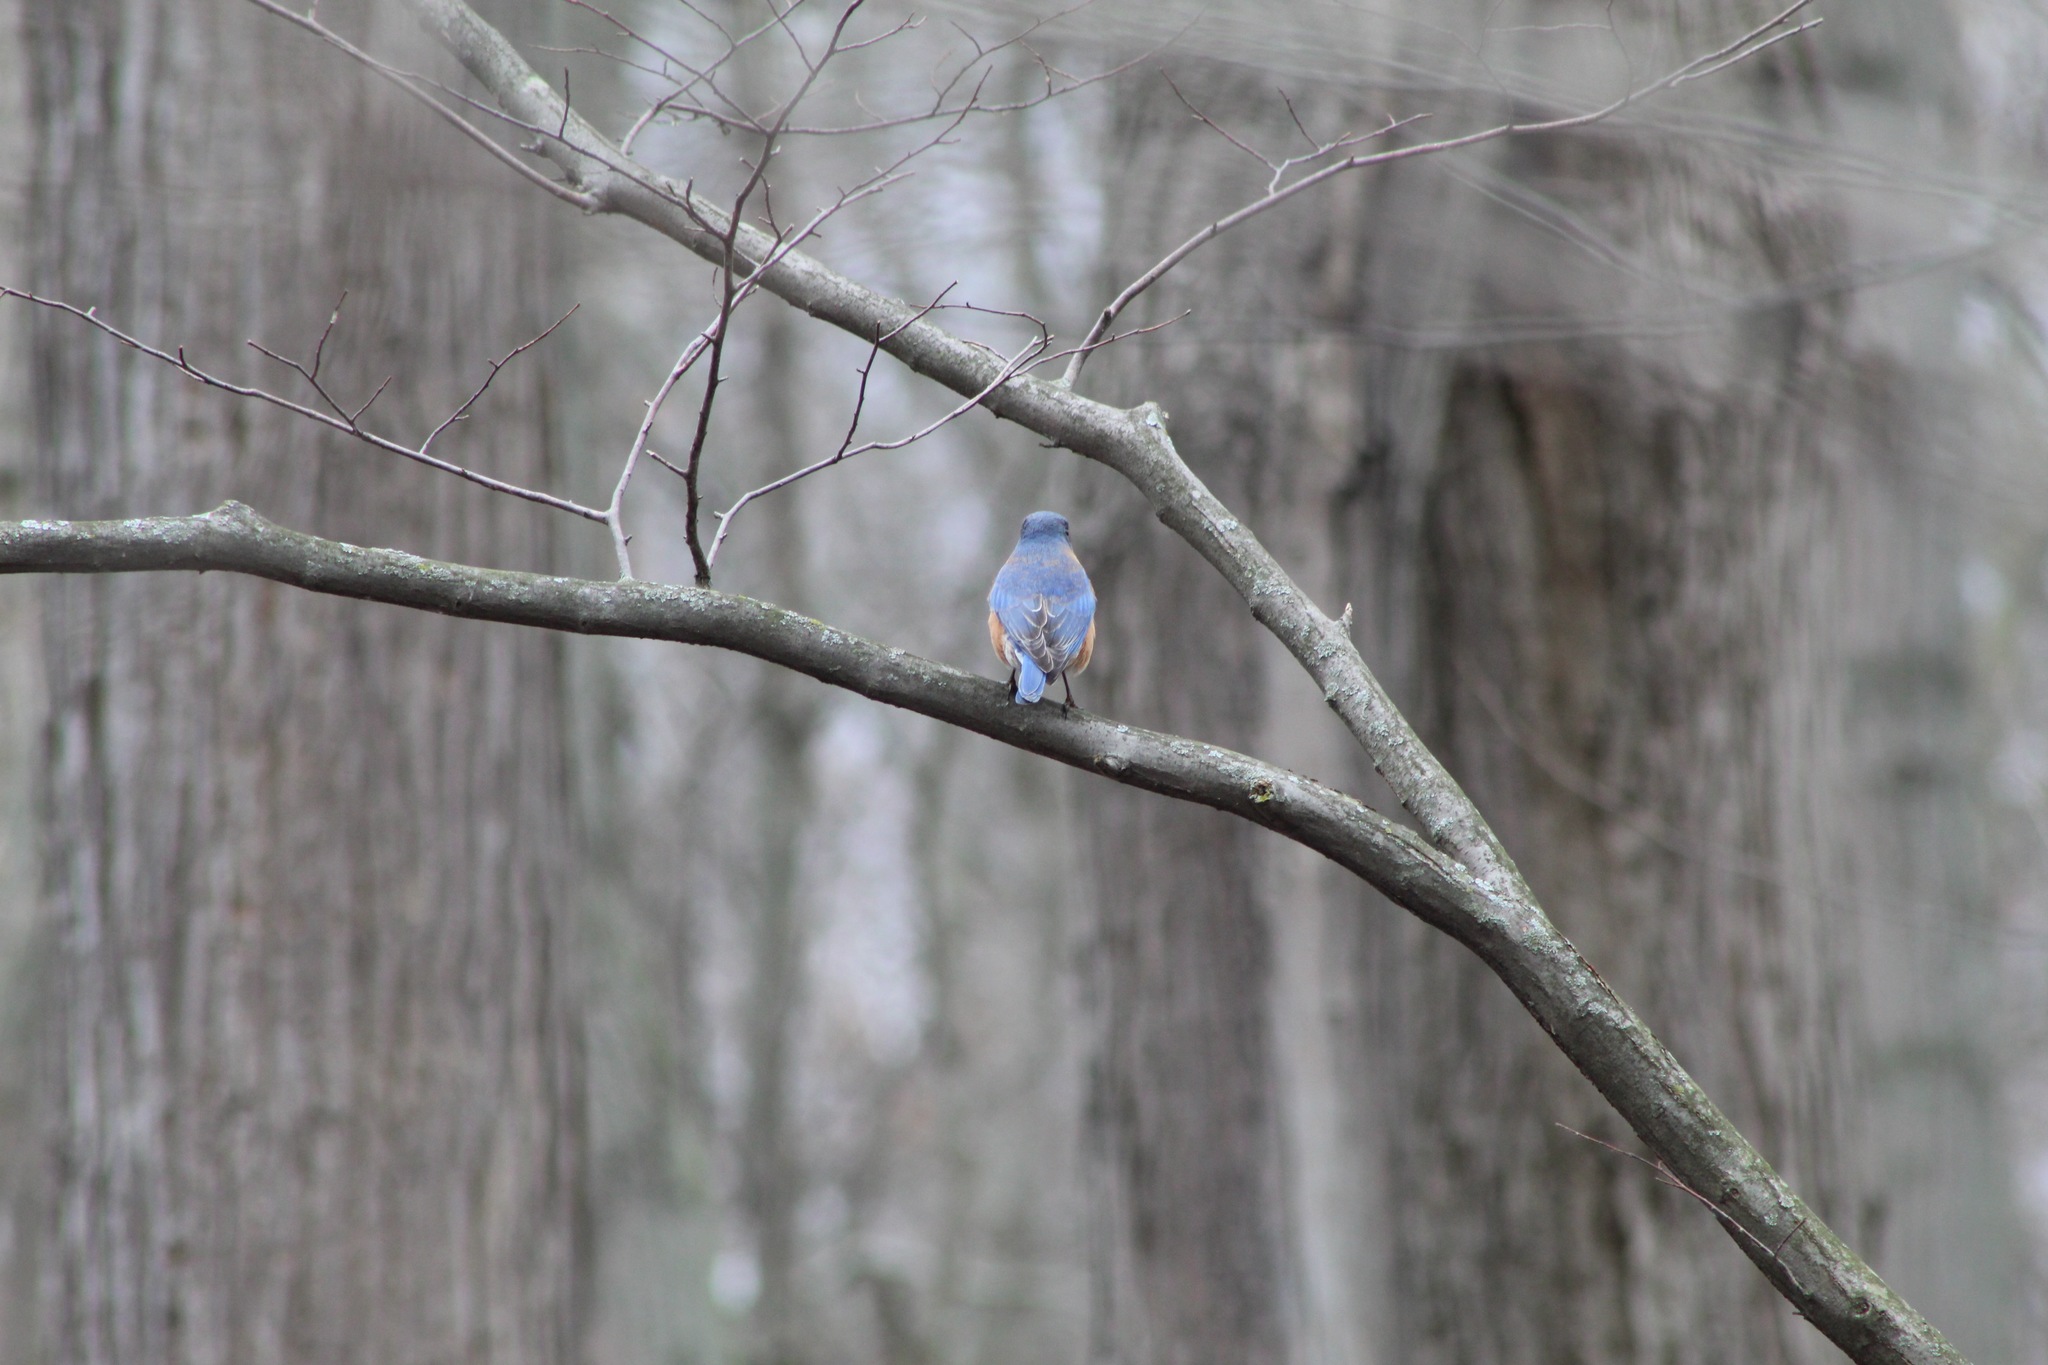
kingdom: Animalia
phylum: Chordata
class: Aves
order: Passeriformes
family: Turdidae
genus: Sialia
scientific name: Sialia sialis
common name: Eastern bluebird
